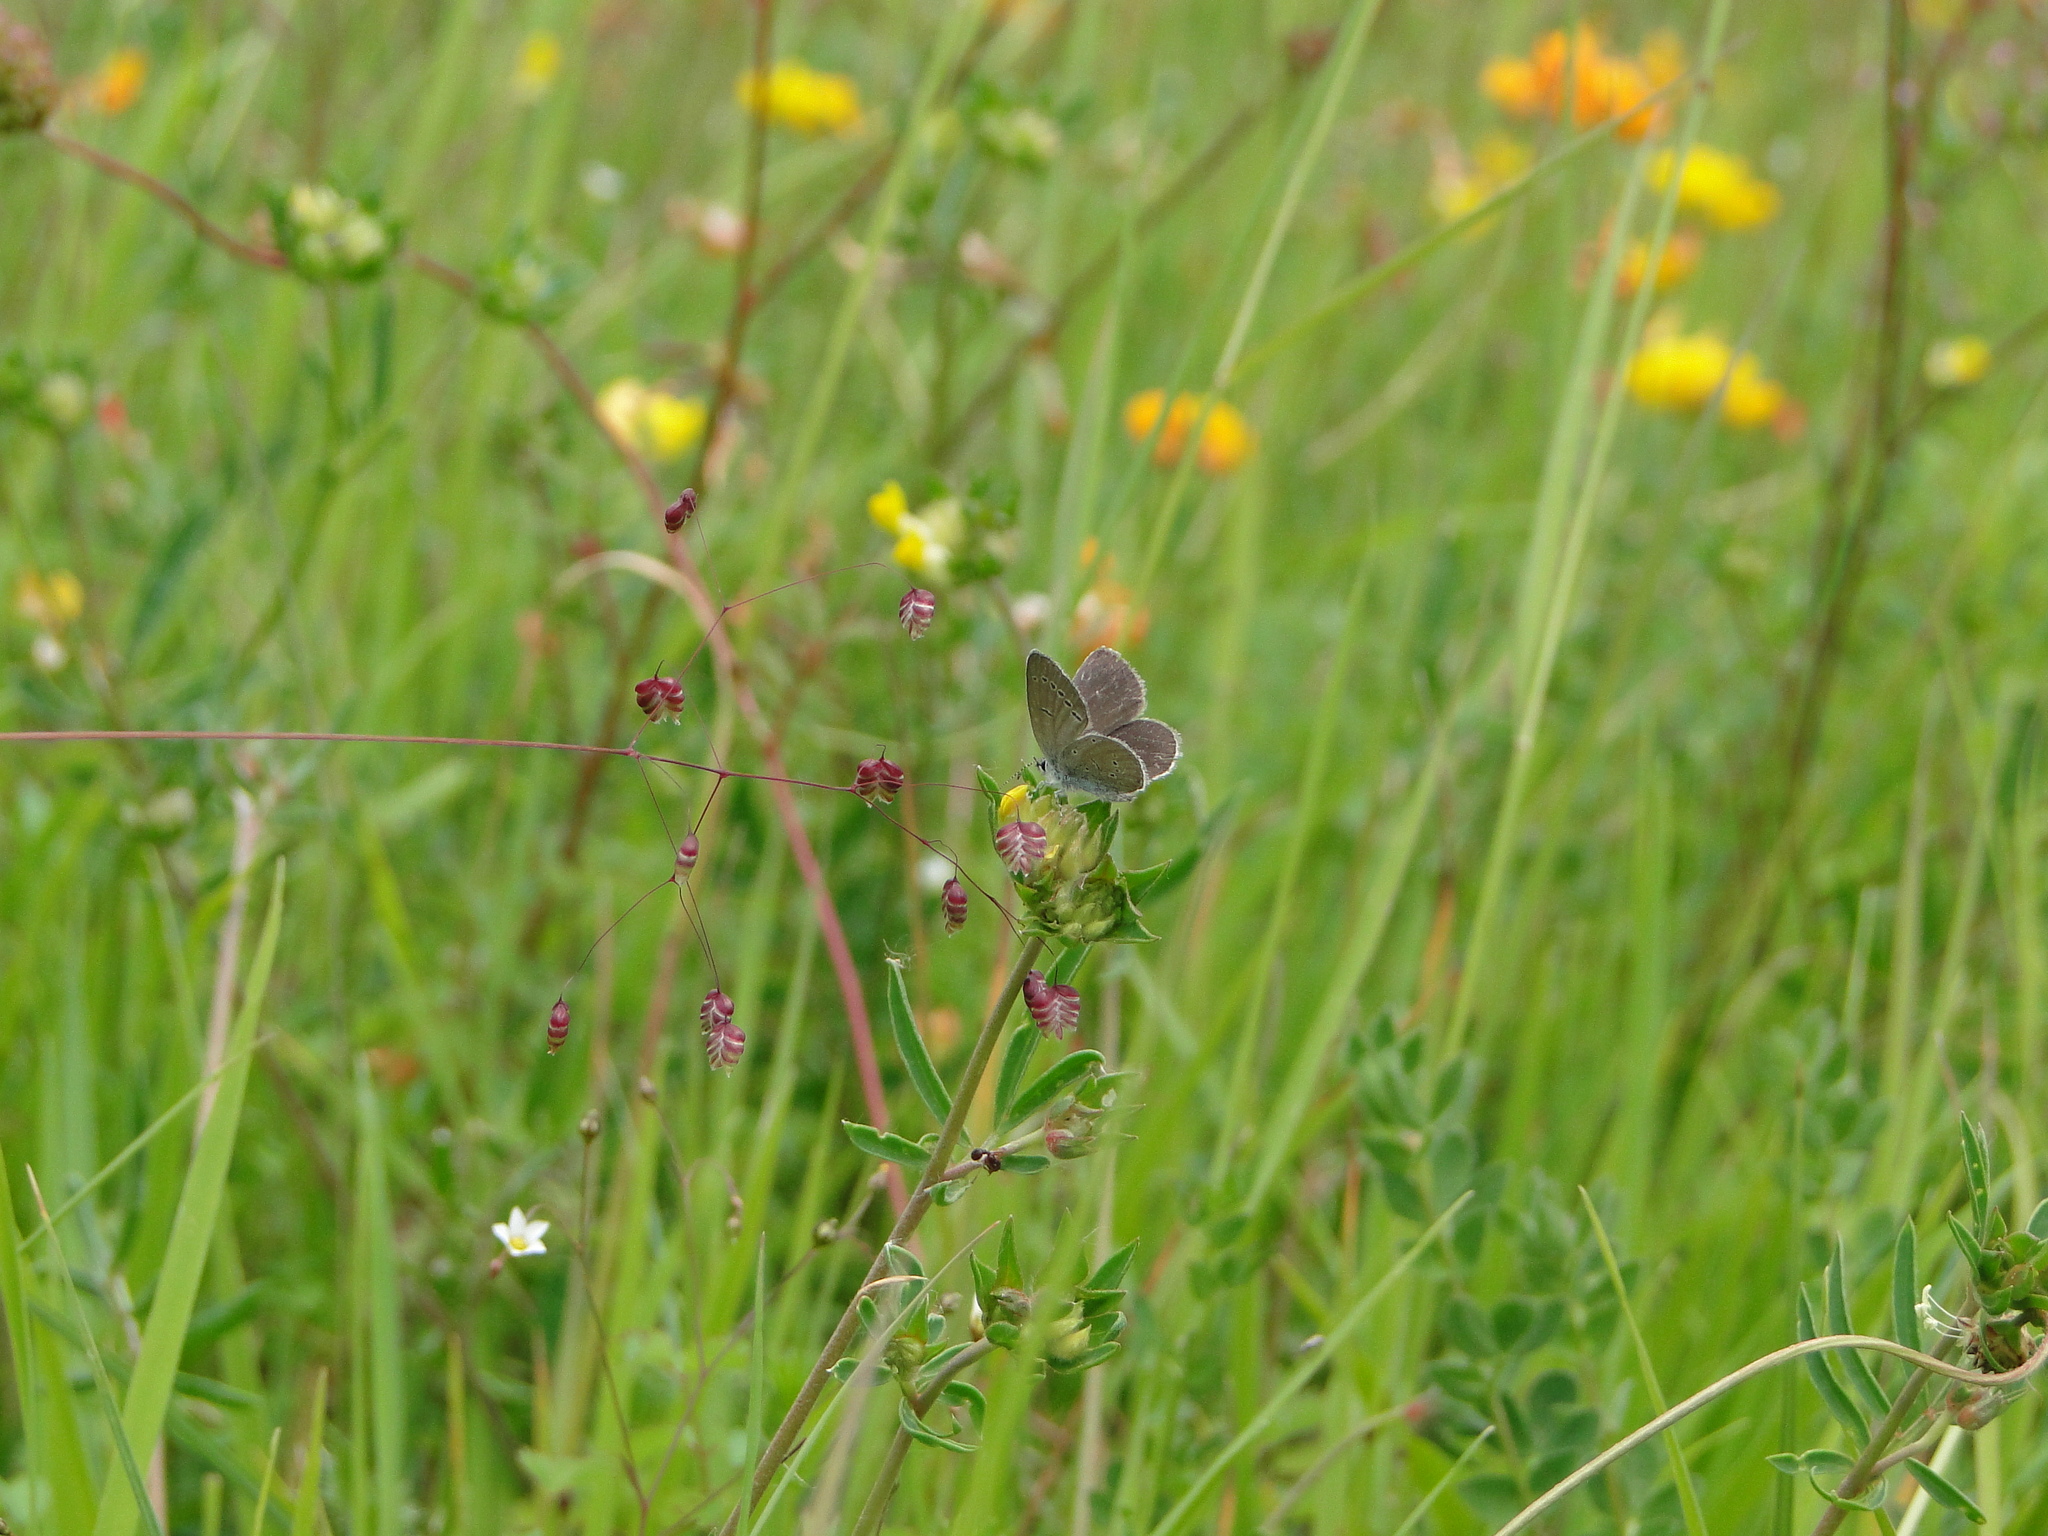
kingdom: Animalia
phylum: Arthropoda
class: Insecta
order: Lepidoptera
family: Lycaenidae
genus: Cupido
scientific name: Cupido minimus
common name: Small blue
